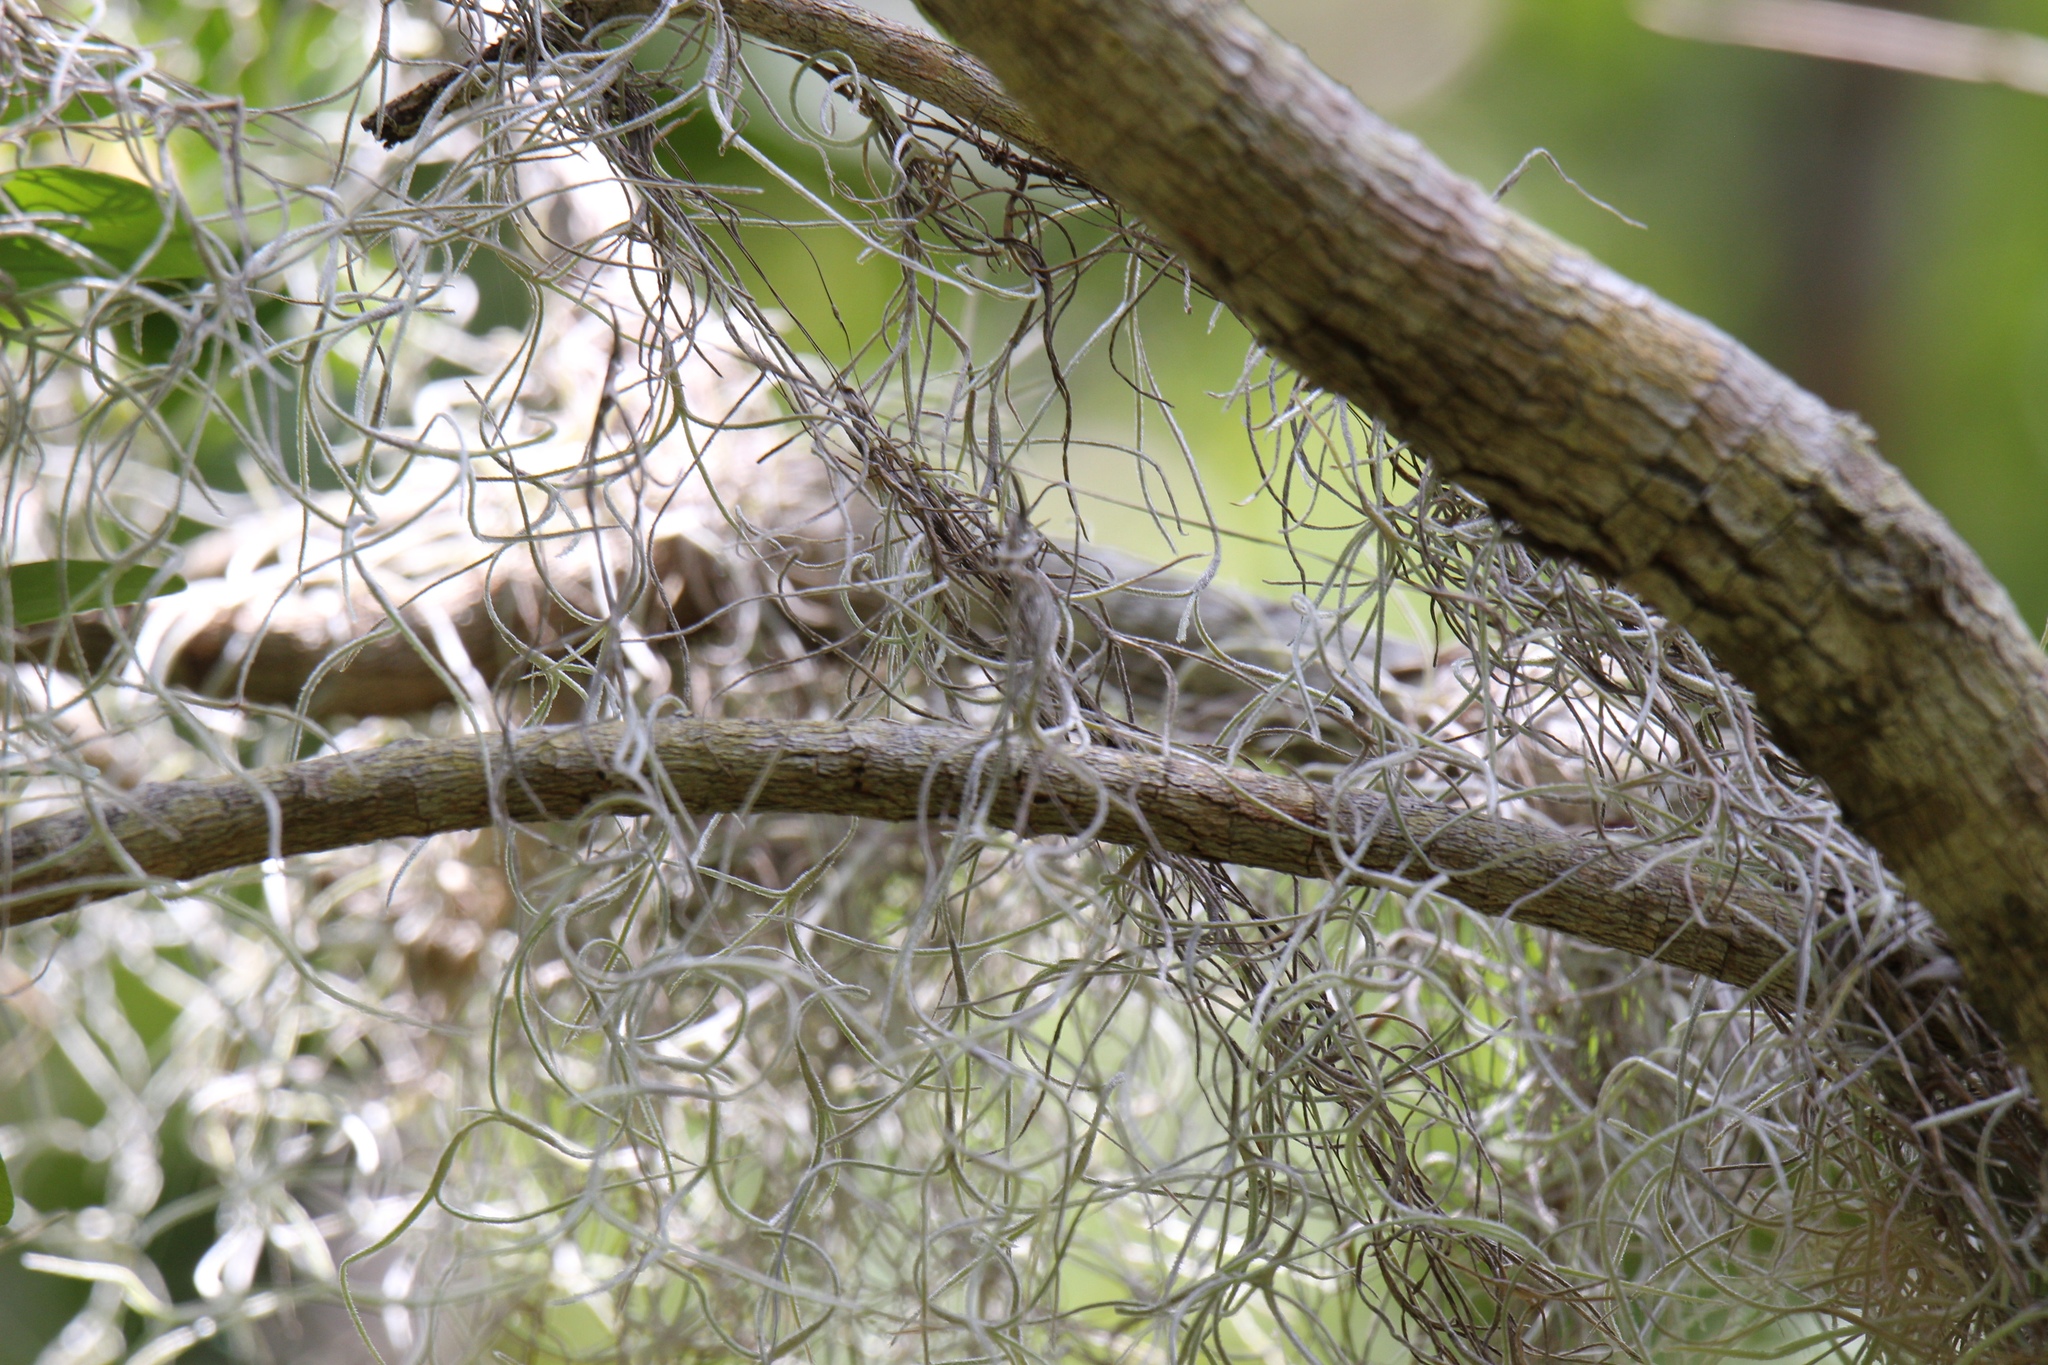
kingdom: Plantae
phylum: Tracheophyta
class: Liliopsida
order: Poales
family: Bromeliaceae
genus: Tillandsia
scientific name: Tillandsia usneoides
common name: Spanish moss
